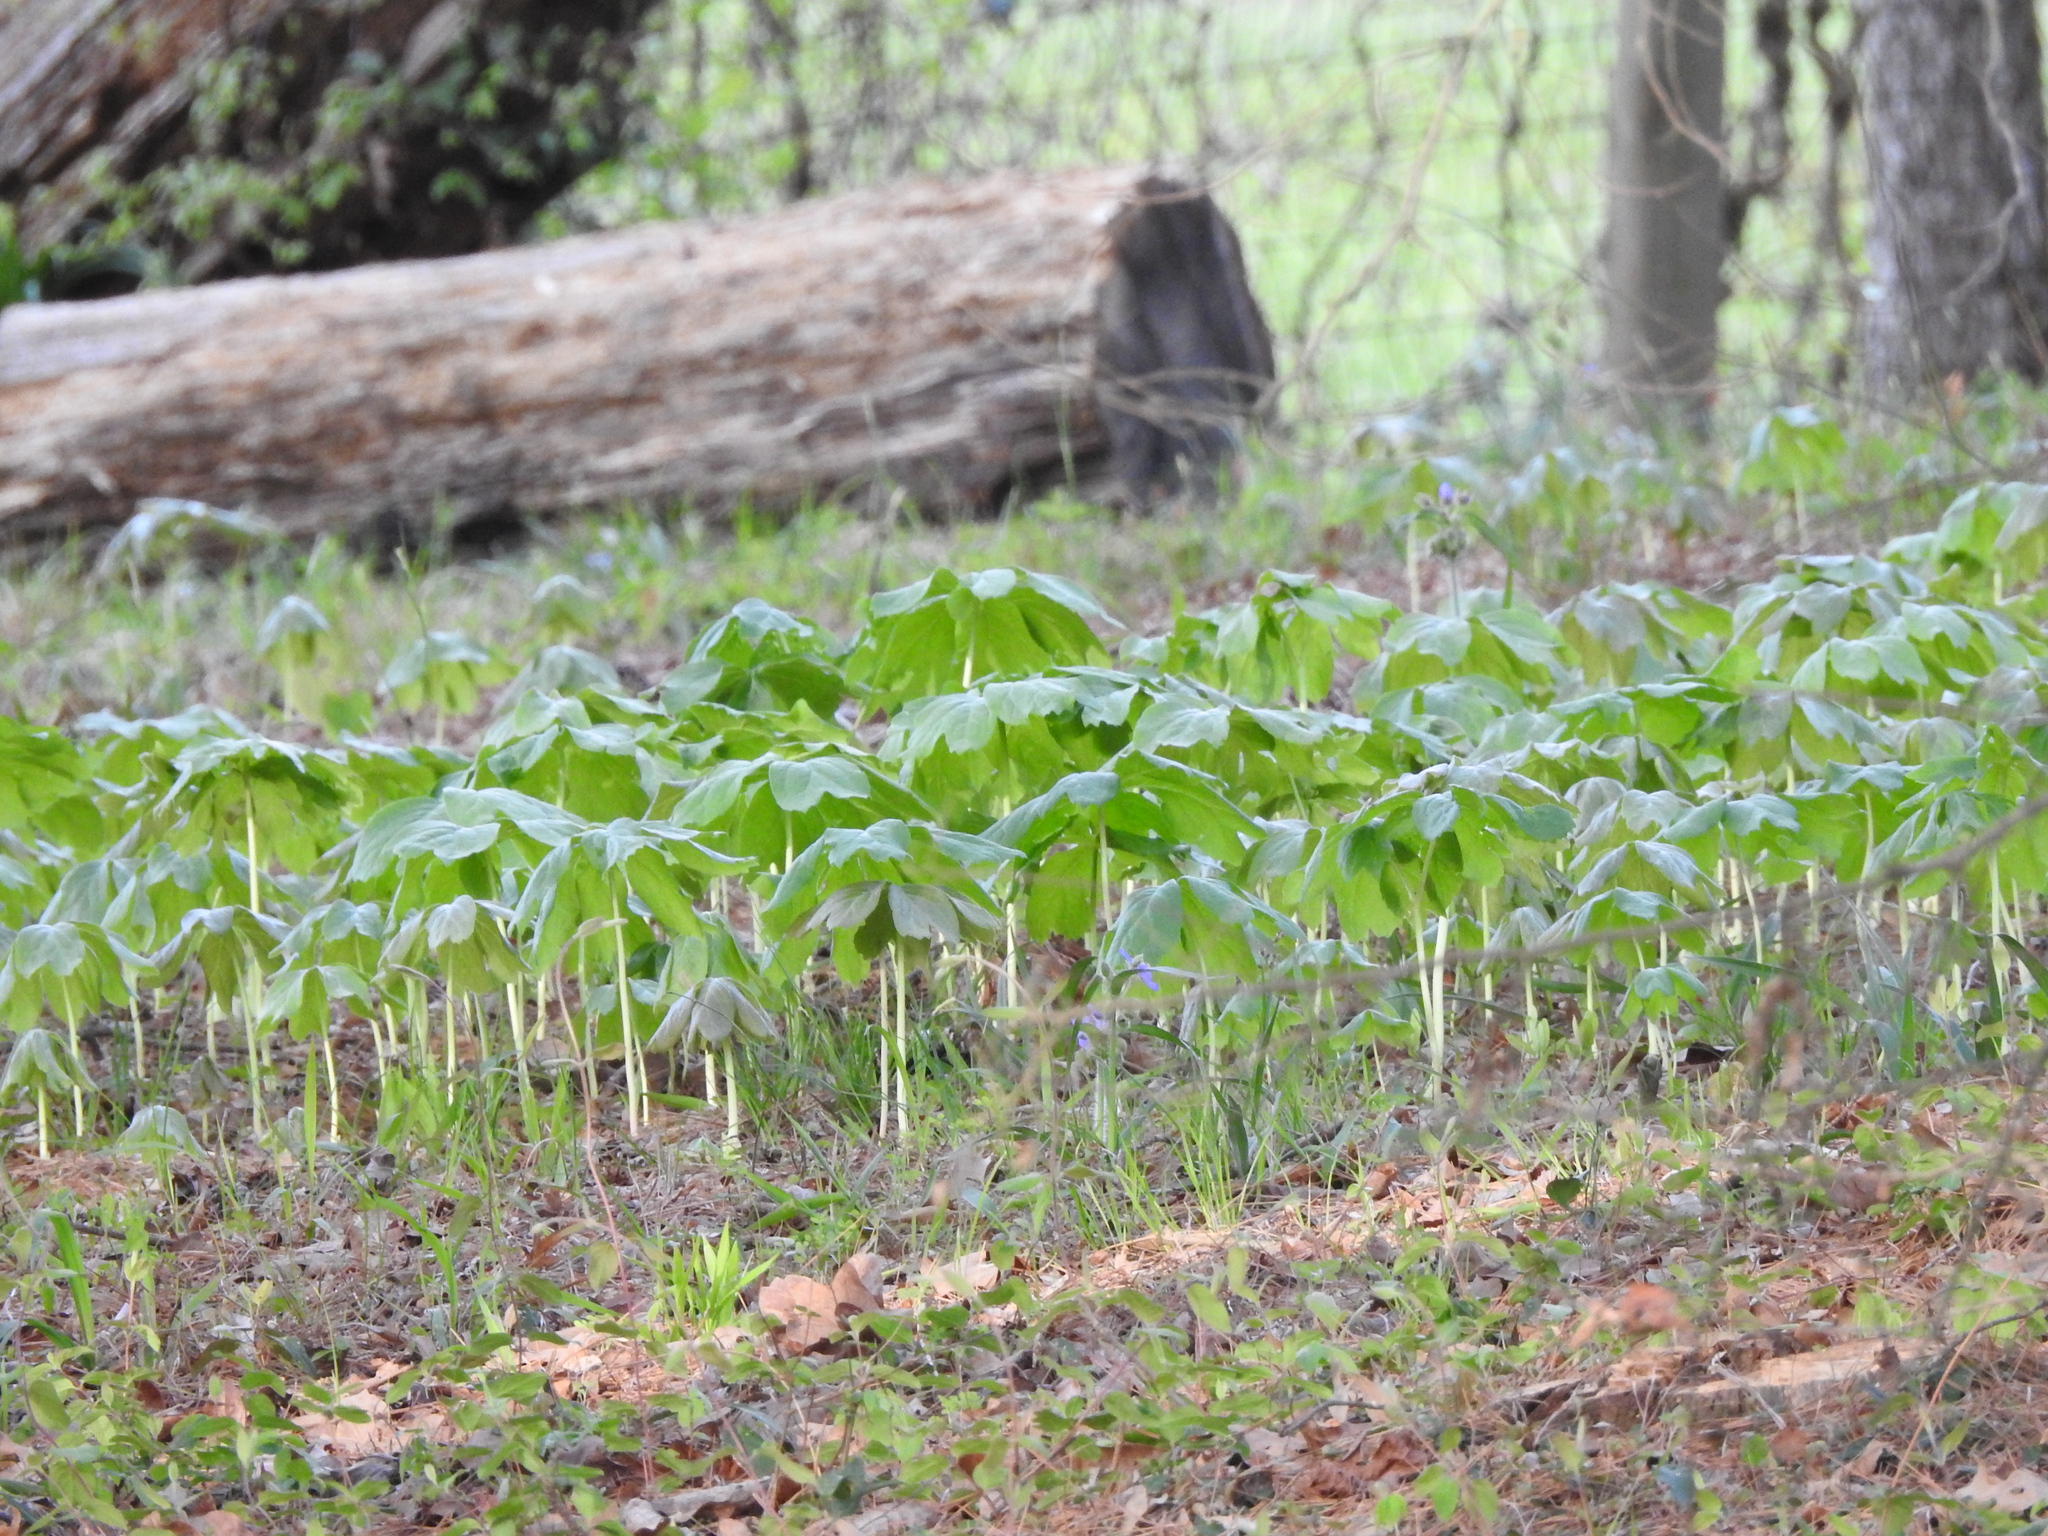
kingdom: Plantae
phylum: Tracheophyta
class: Magnoliopsida
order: Ranunculales
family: Berberidaceae
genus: Podophyllum
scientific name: Podophyllum peltatum
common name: Wild mandrake
